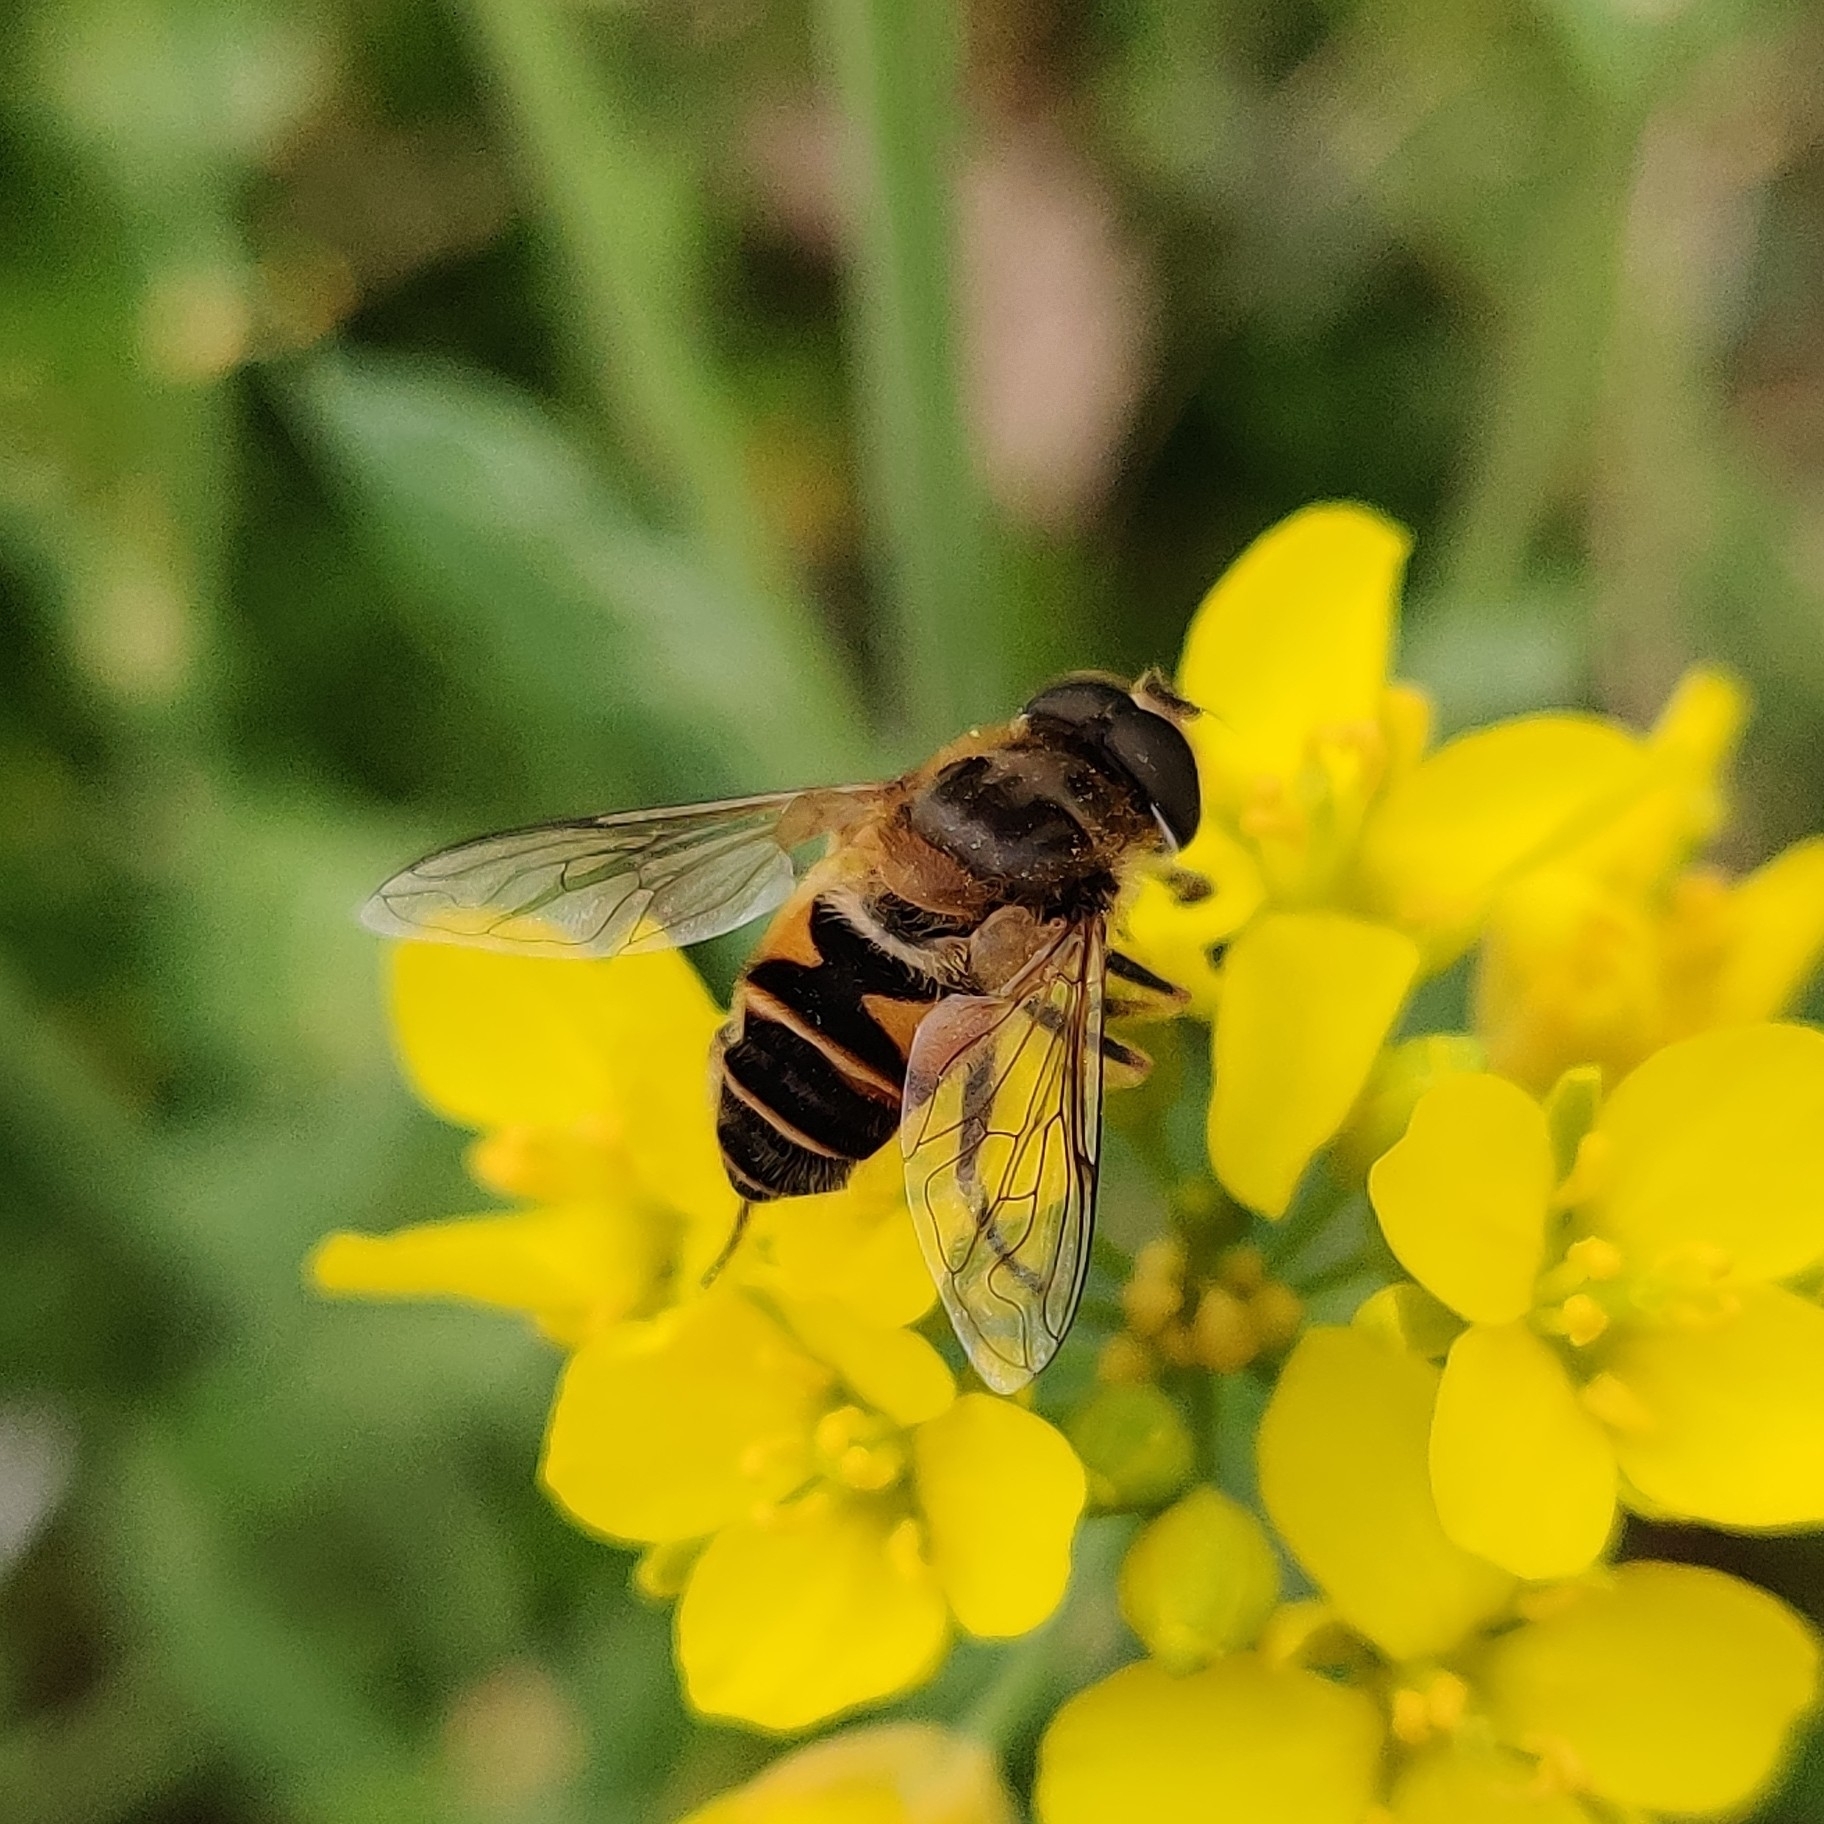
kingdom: Animalia
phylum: Arthropoda
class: Insecta
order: Diptera
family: Syrphidae
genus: Eristalis
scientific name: Eristalis cerealis
